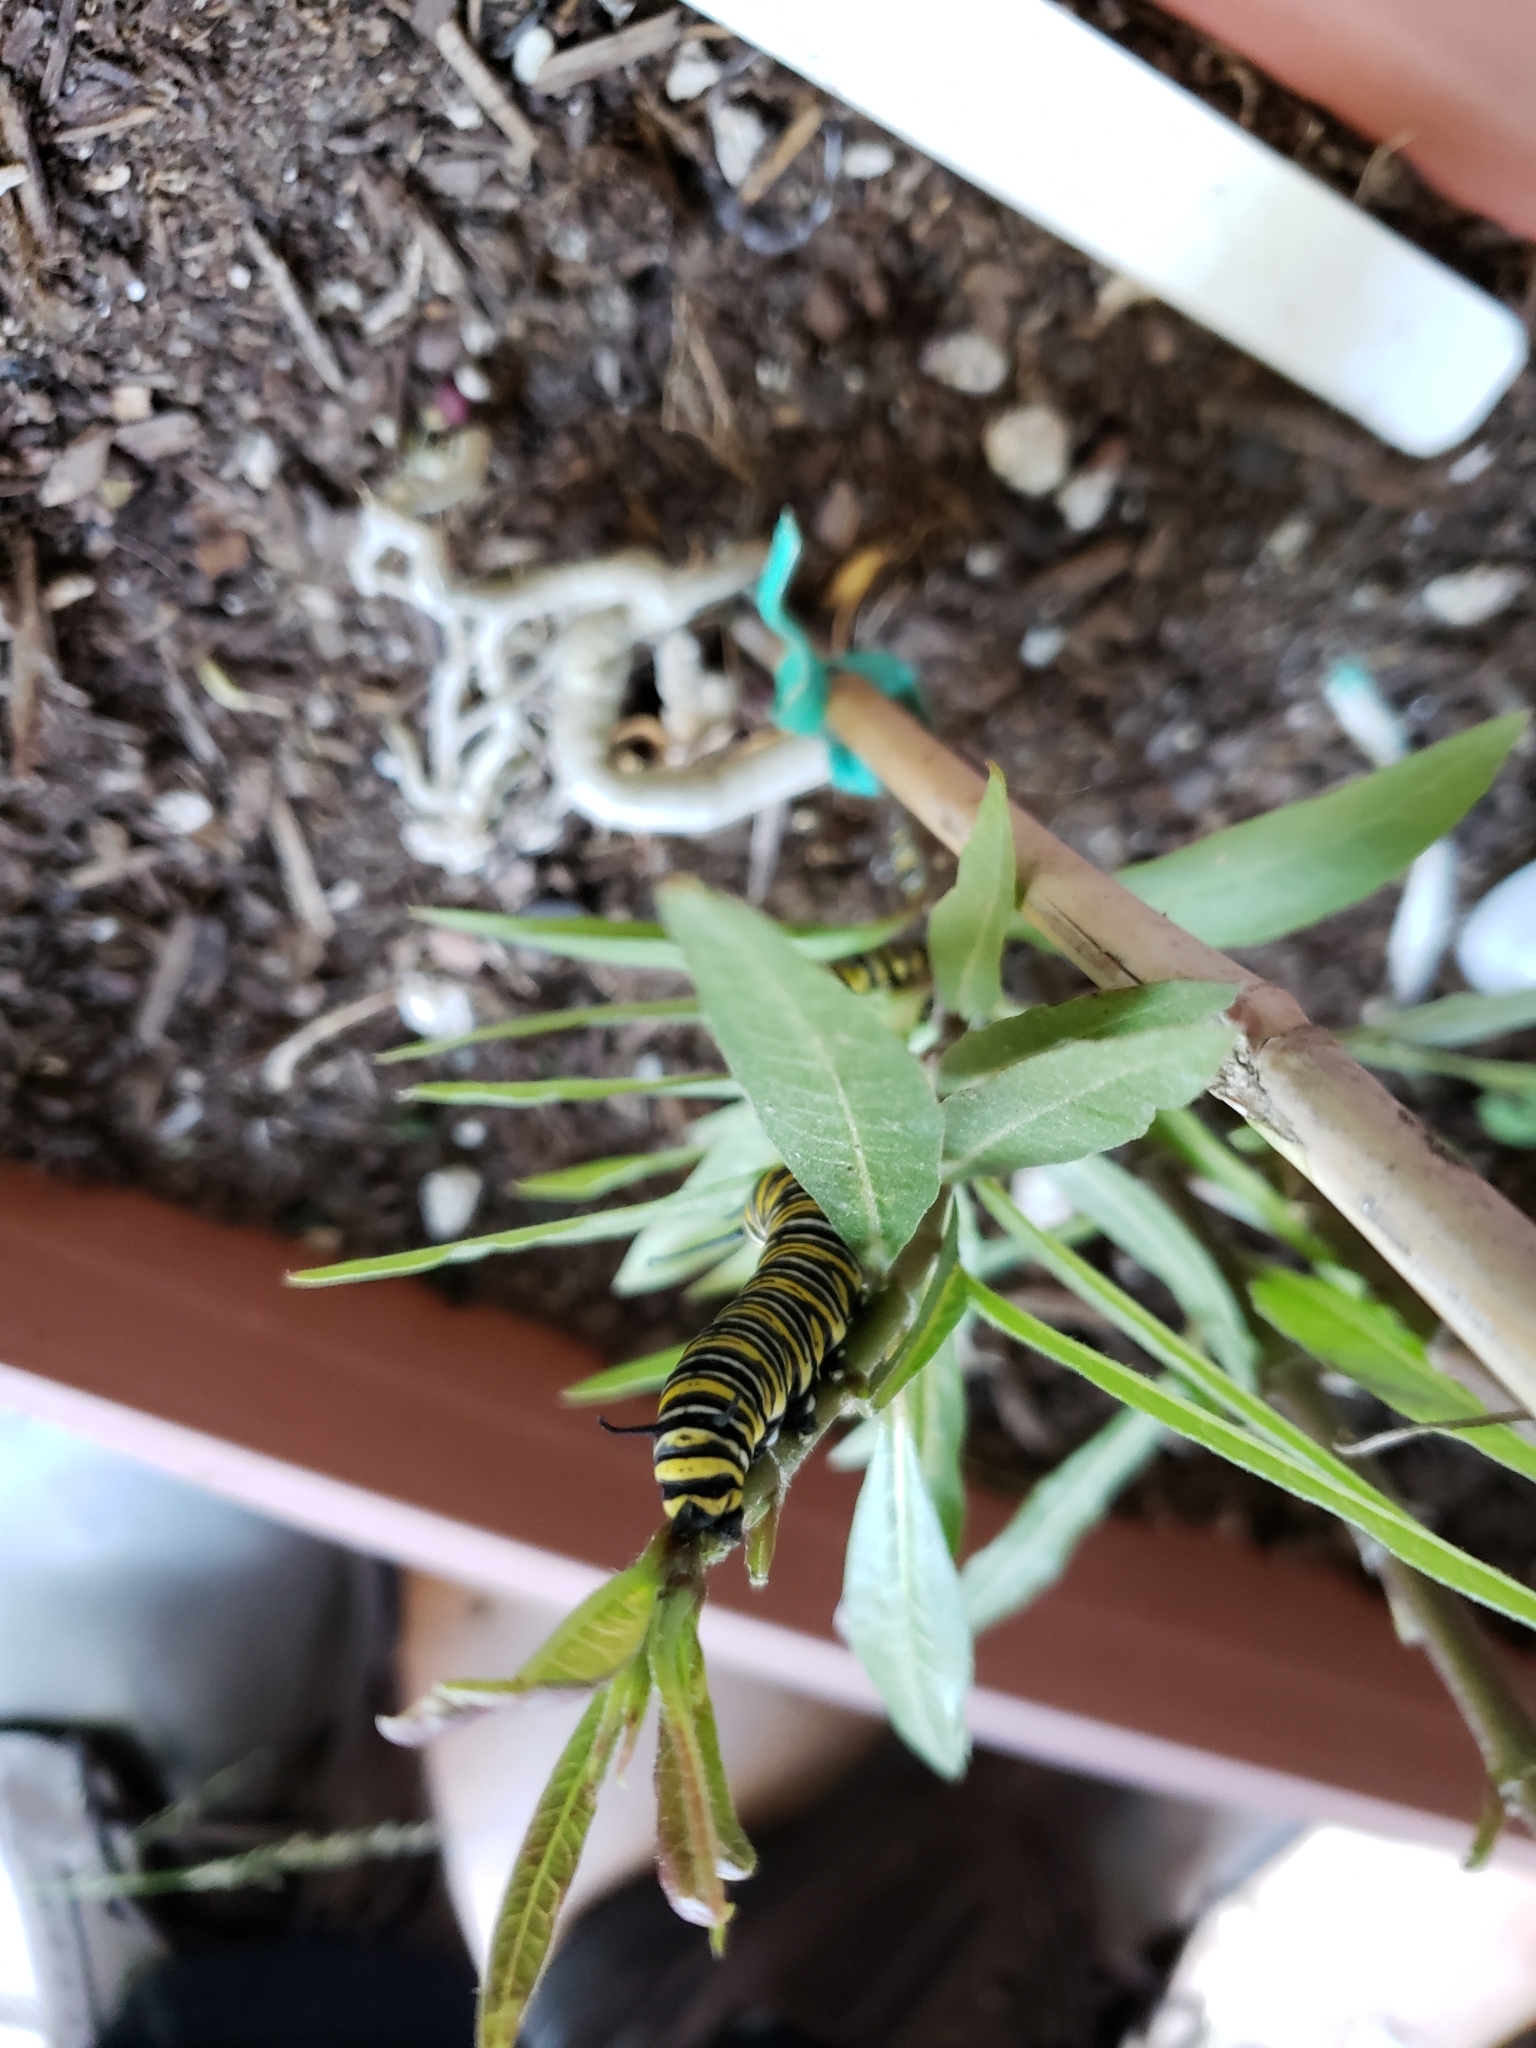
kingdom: Animalia
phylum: Arthropoda
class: Insecta
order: Lepidoptera
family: Nymphalidae
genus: Danaus
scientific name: Danaus plexippus
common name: Monarch
